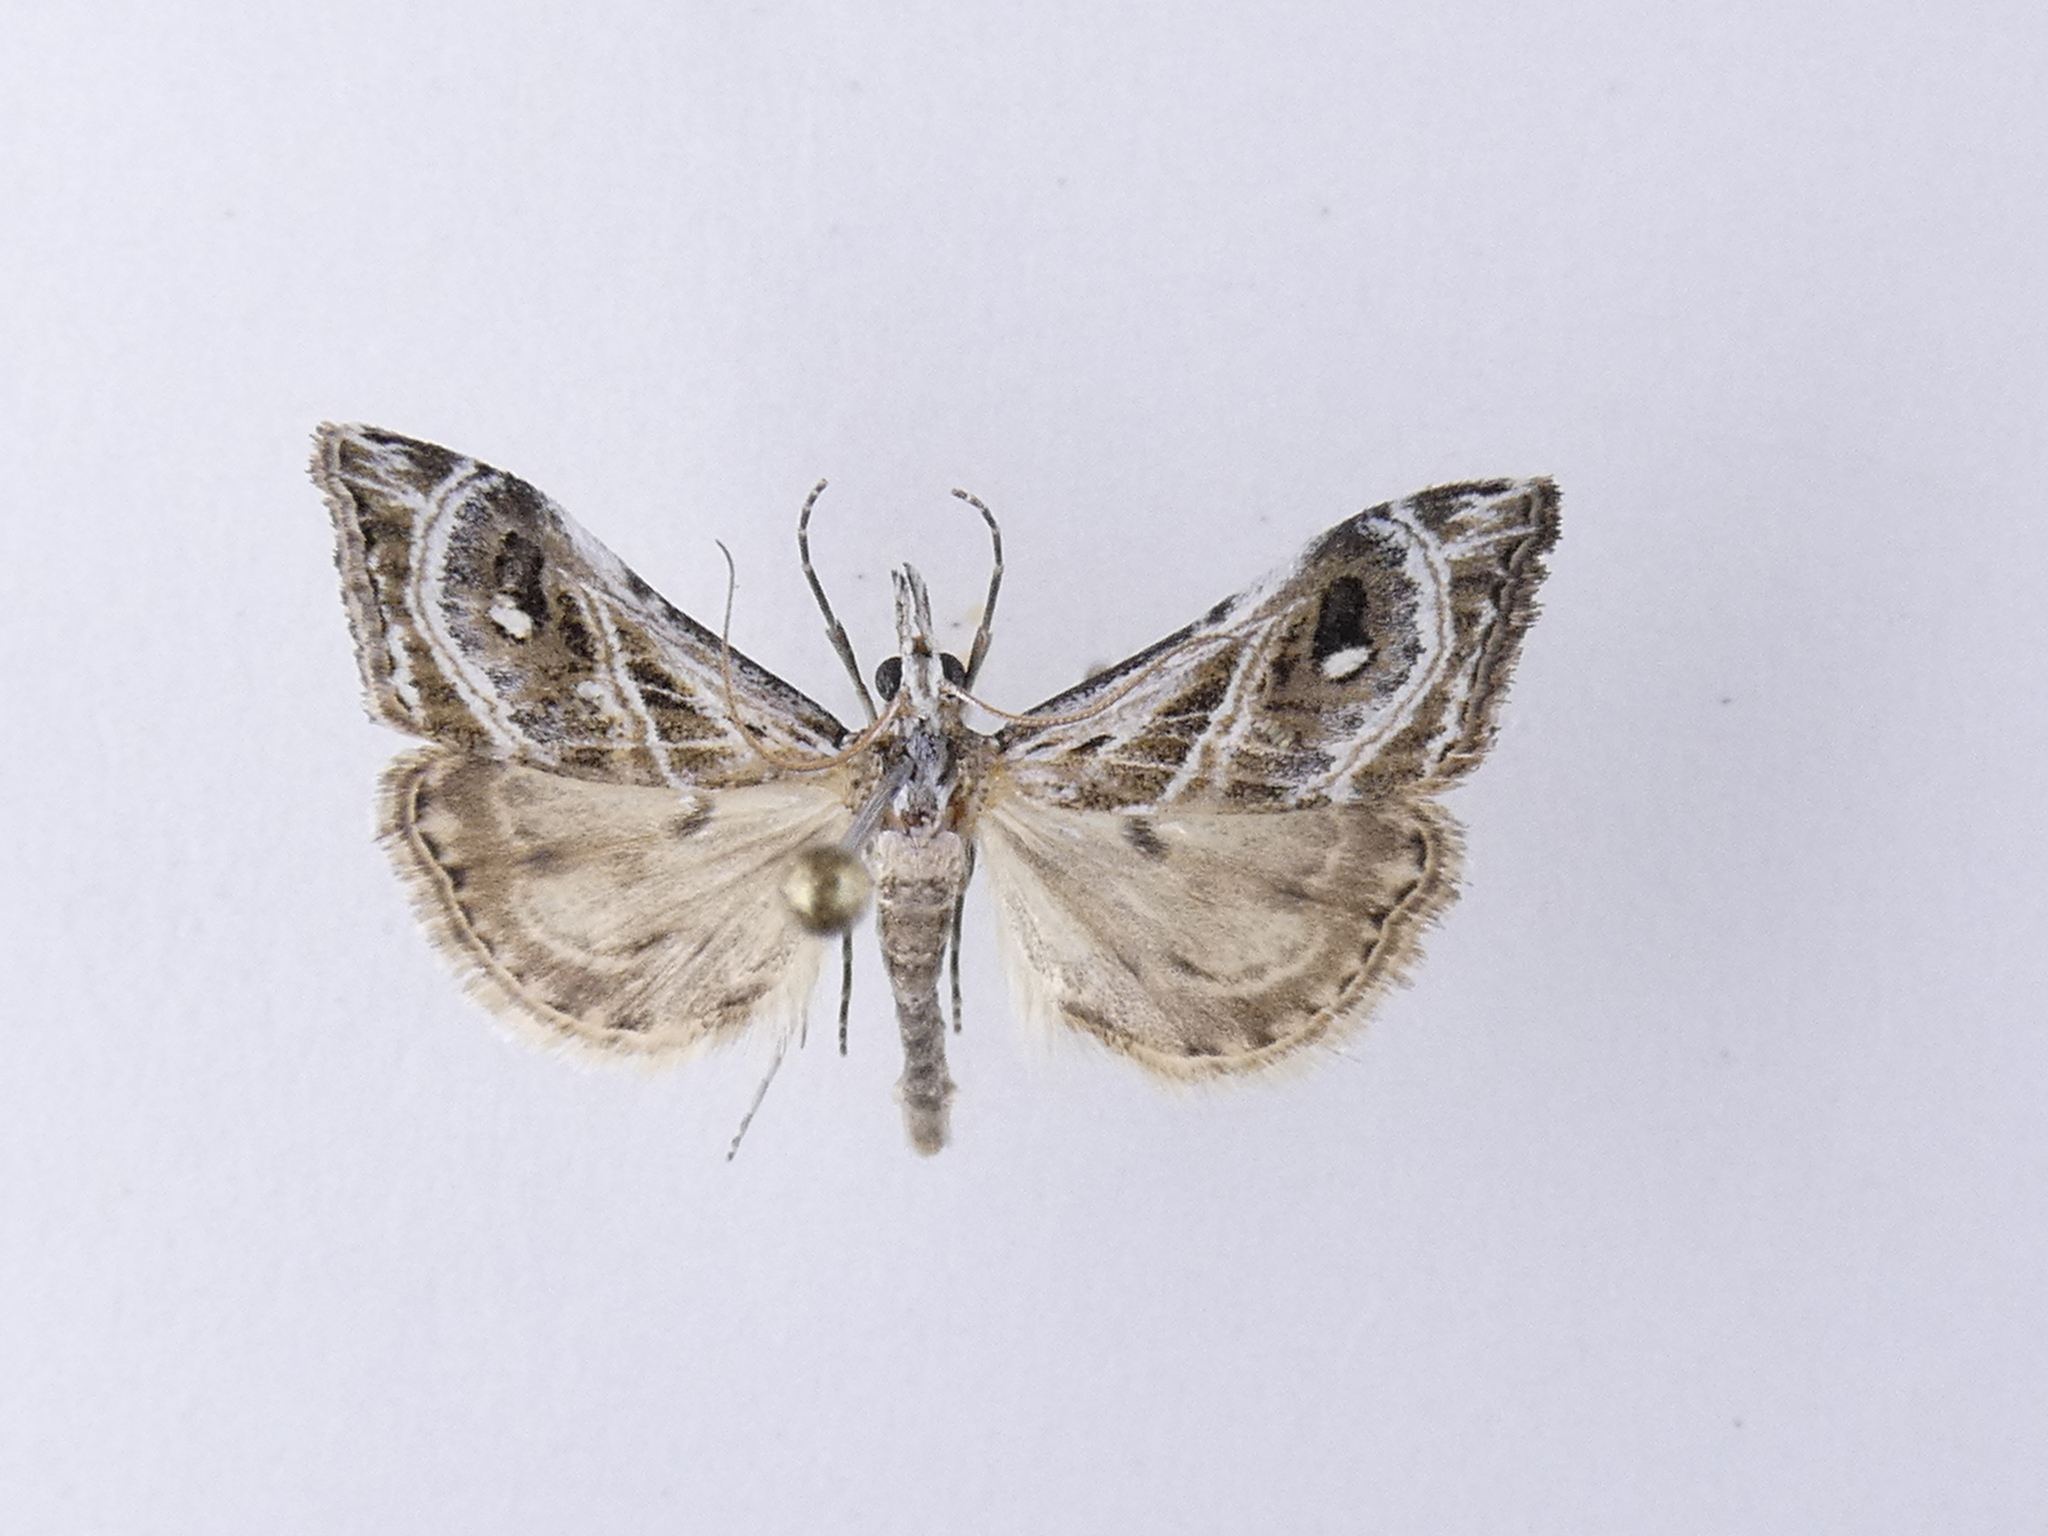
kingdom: Animalia
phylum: Arthropoda
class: Insecta
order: Lepidoptera
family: Crambidae
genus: Gadira
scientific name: Gadira acerella
